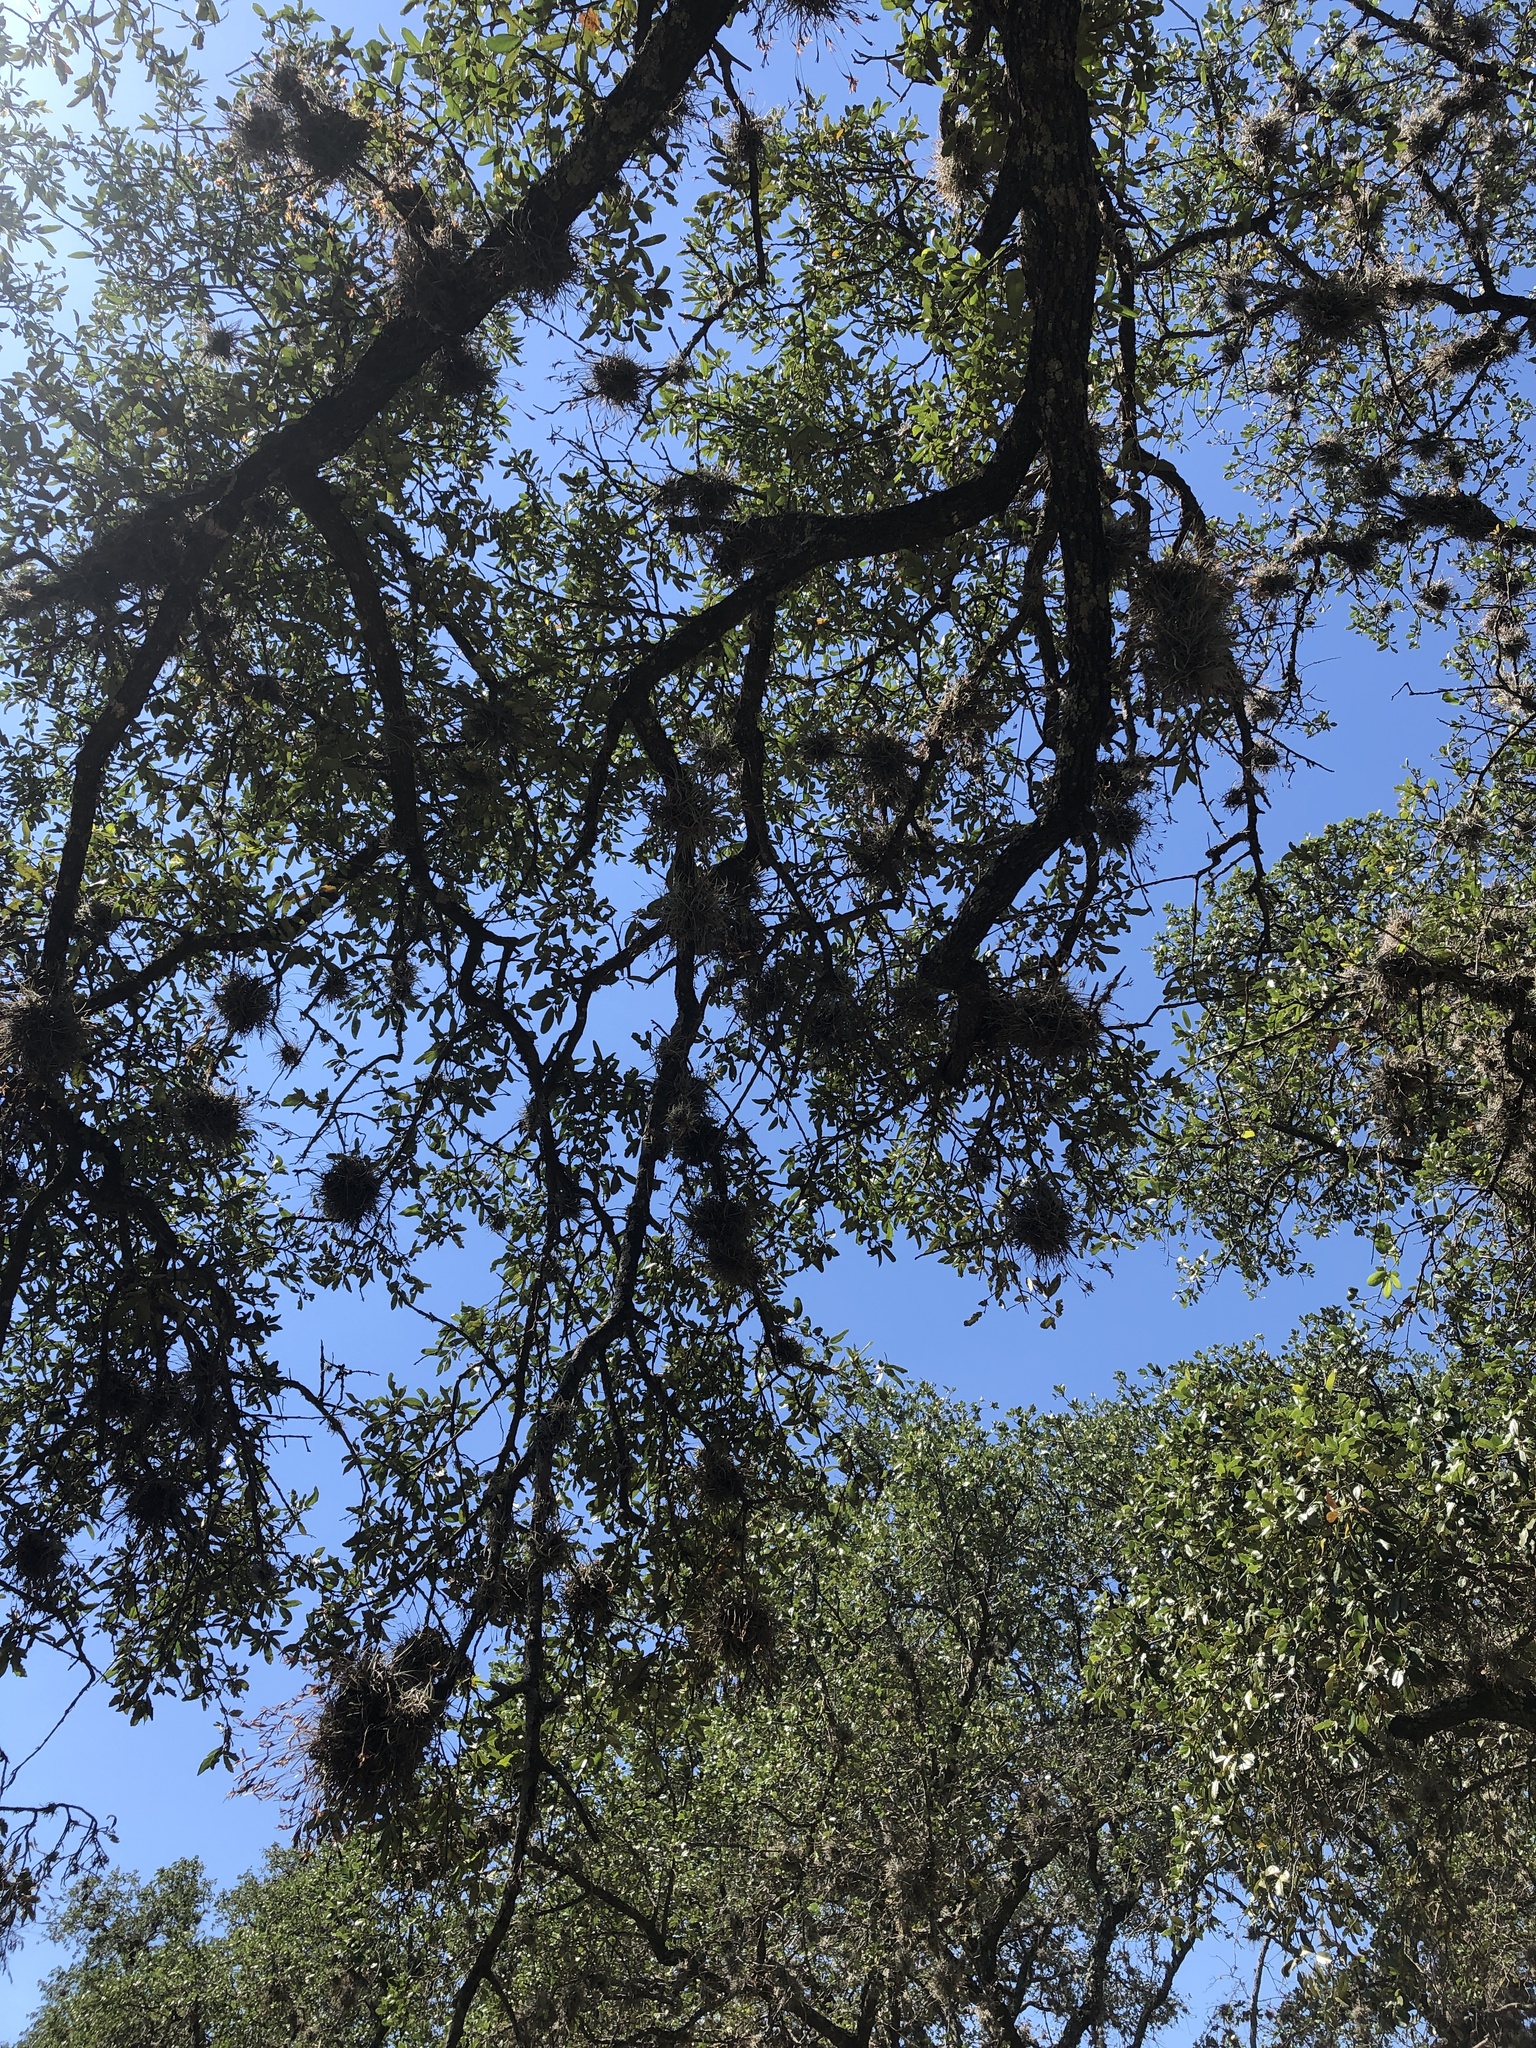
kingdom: Plantae
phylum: Tracheophyta
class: Liliopsida
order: Poales
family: Bromeliaceae
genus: Tillandsia
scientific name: Tillandsia recurvata
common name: Small ballmoss
